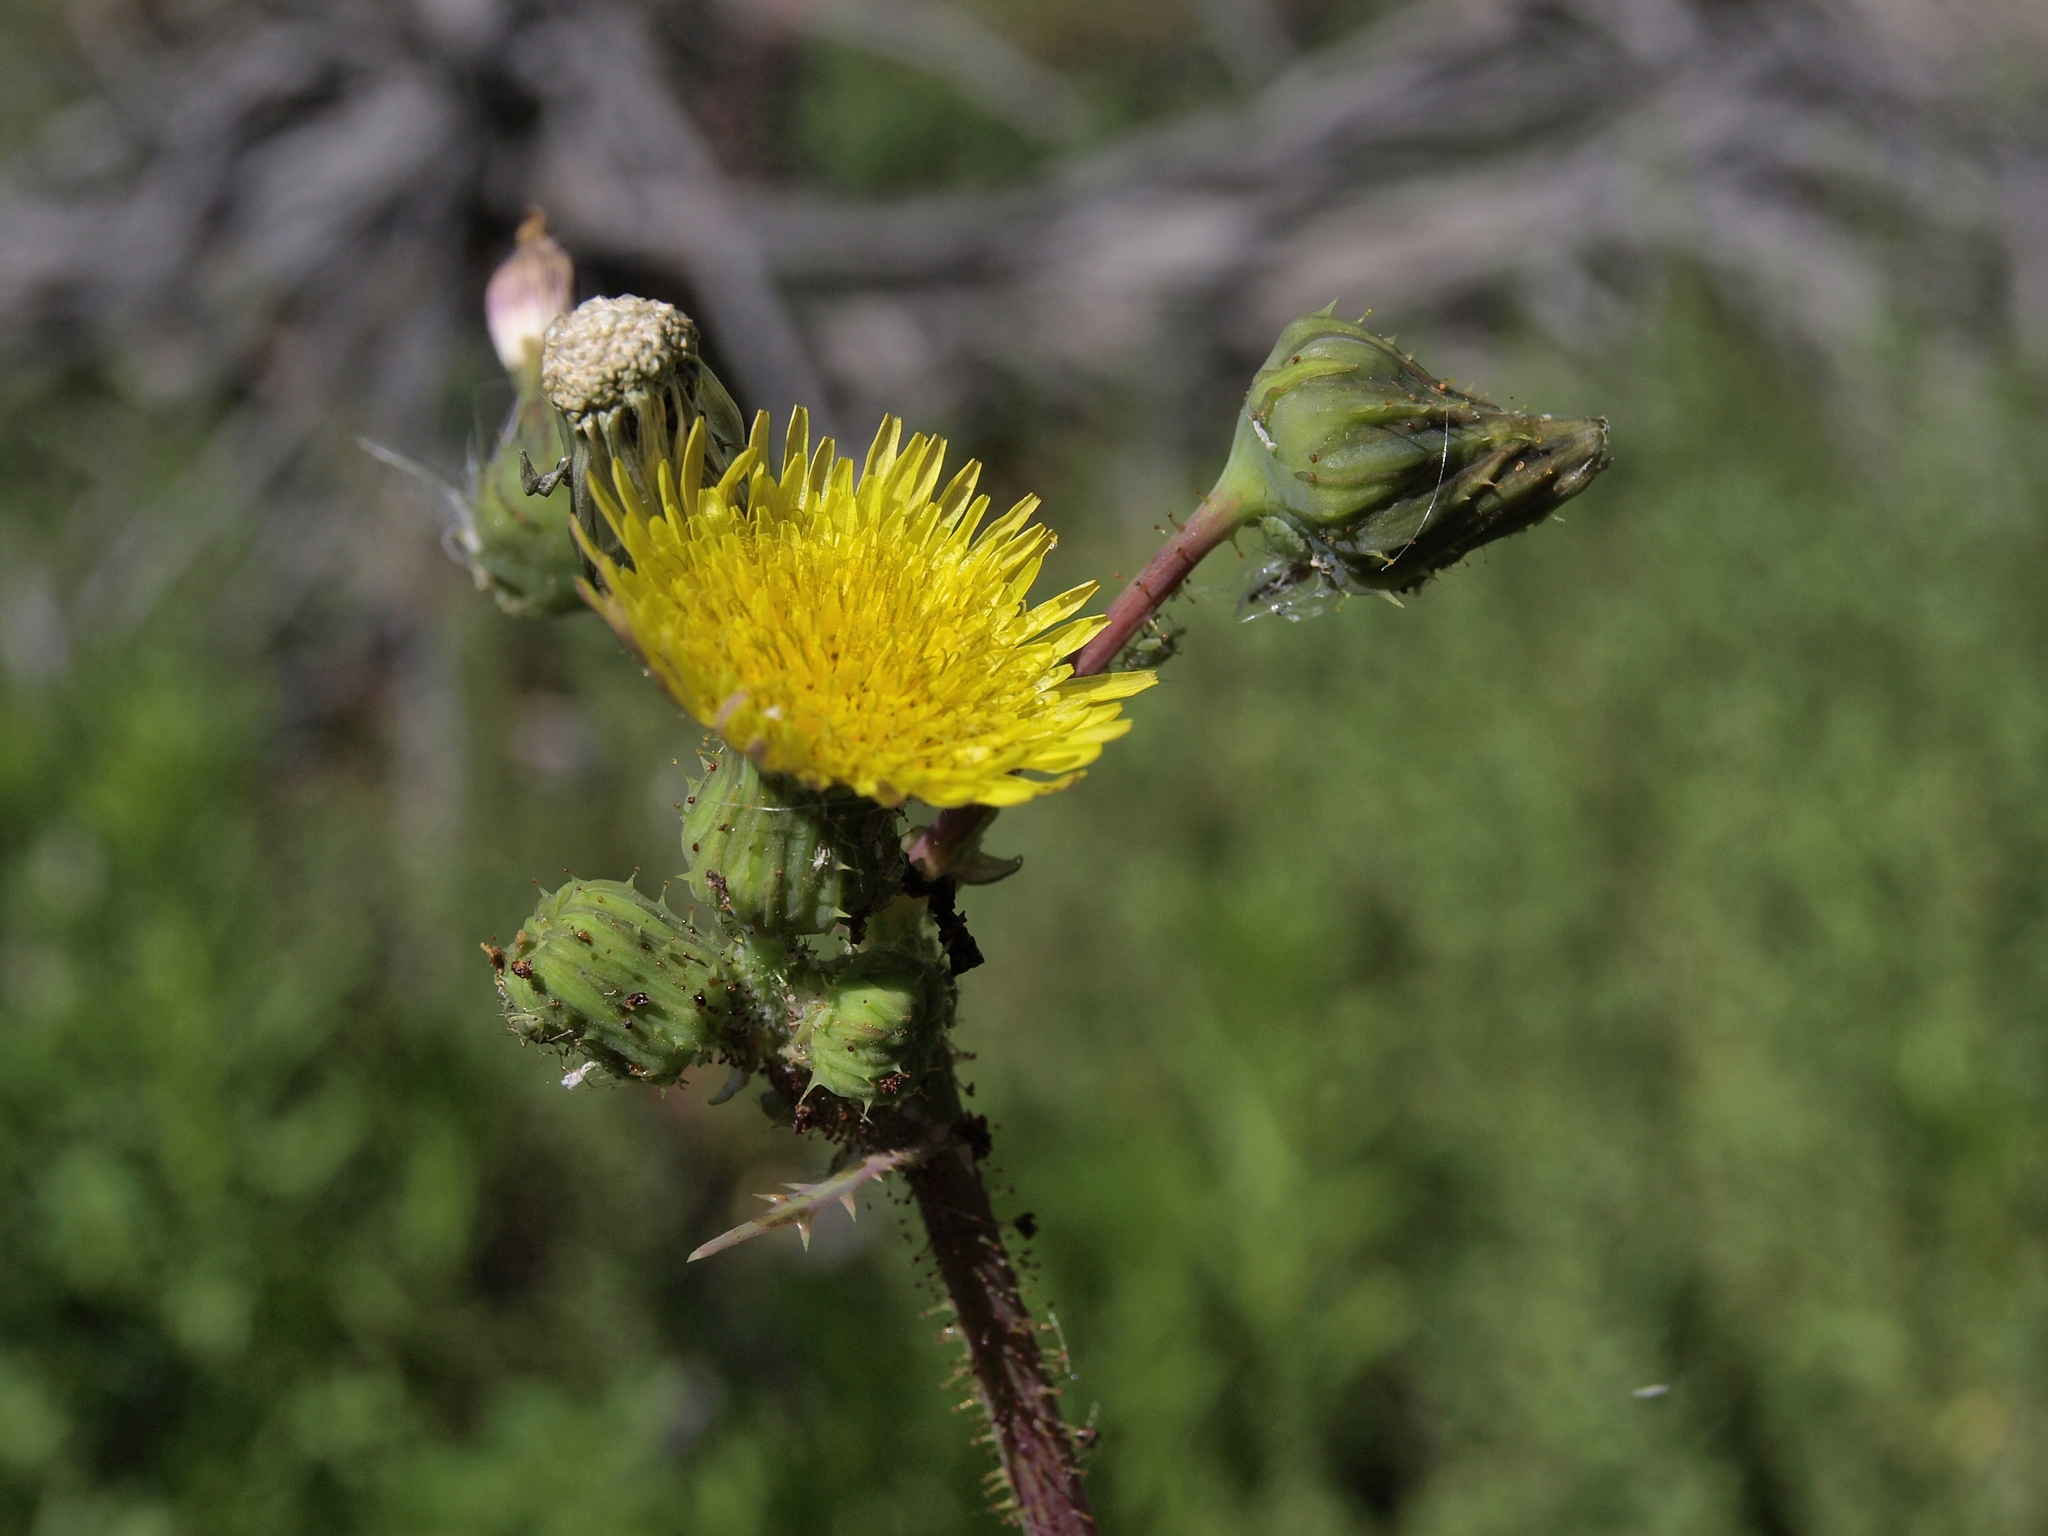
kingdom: Plantae
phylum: Tracheophyta
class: Magnoliopsida
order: Asterales
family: Asteraceae
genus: Sonchus
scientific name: Sonchus asper
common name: Prickly sow-thistle
